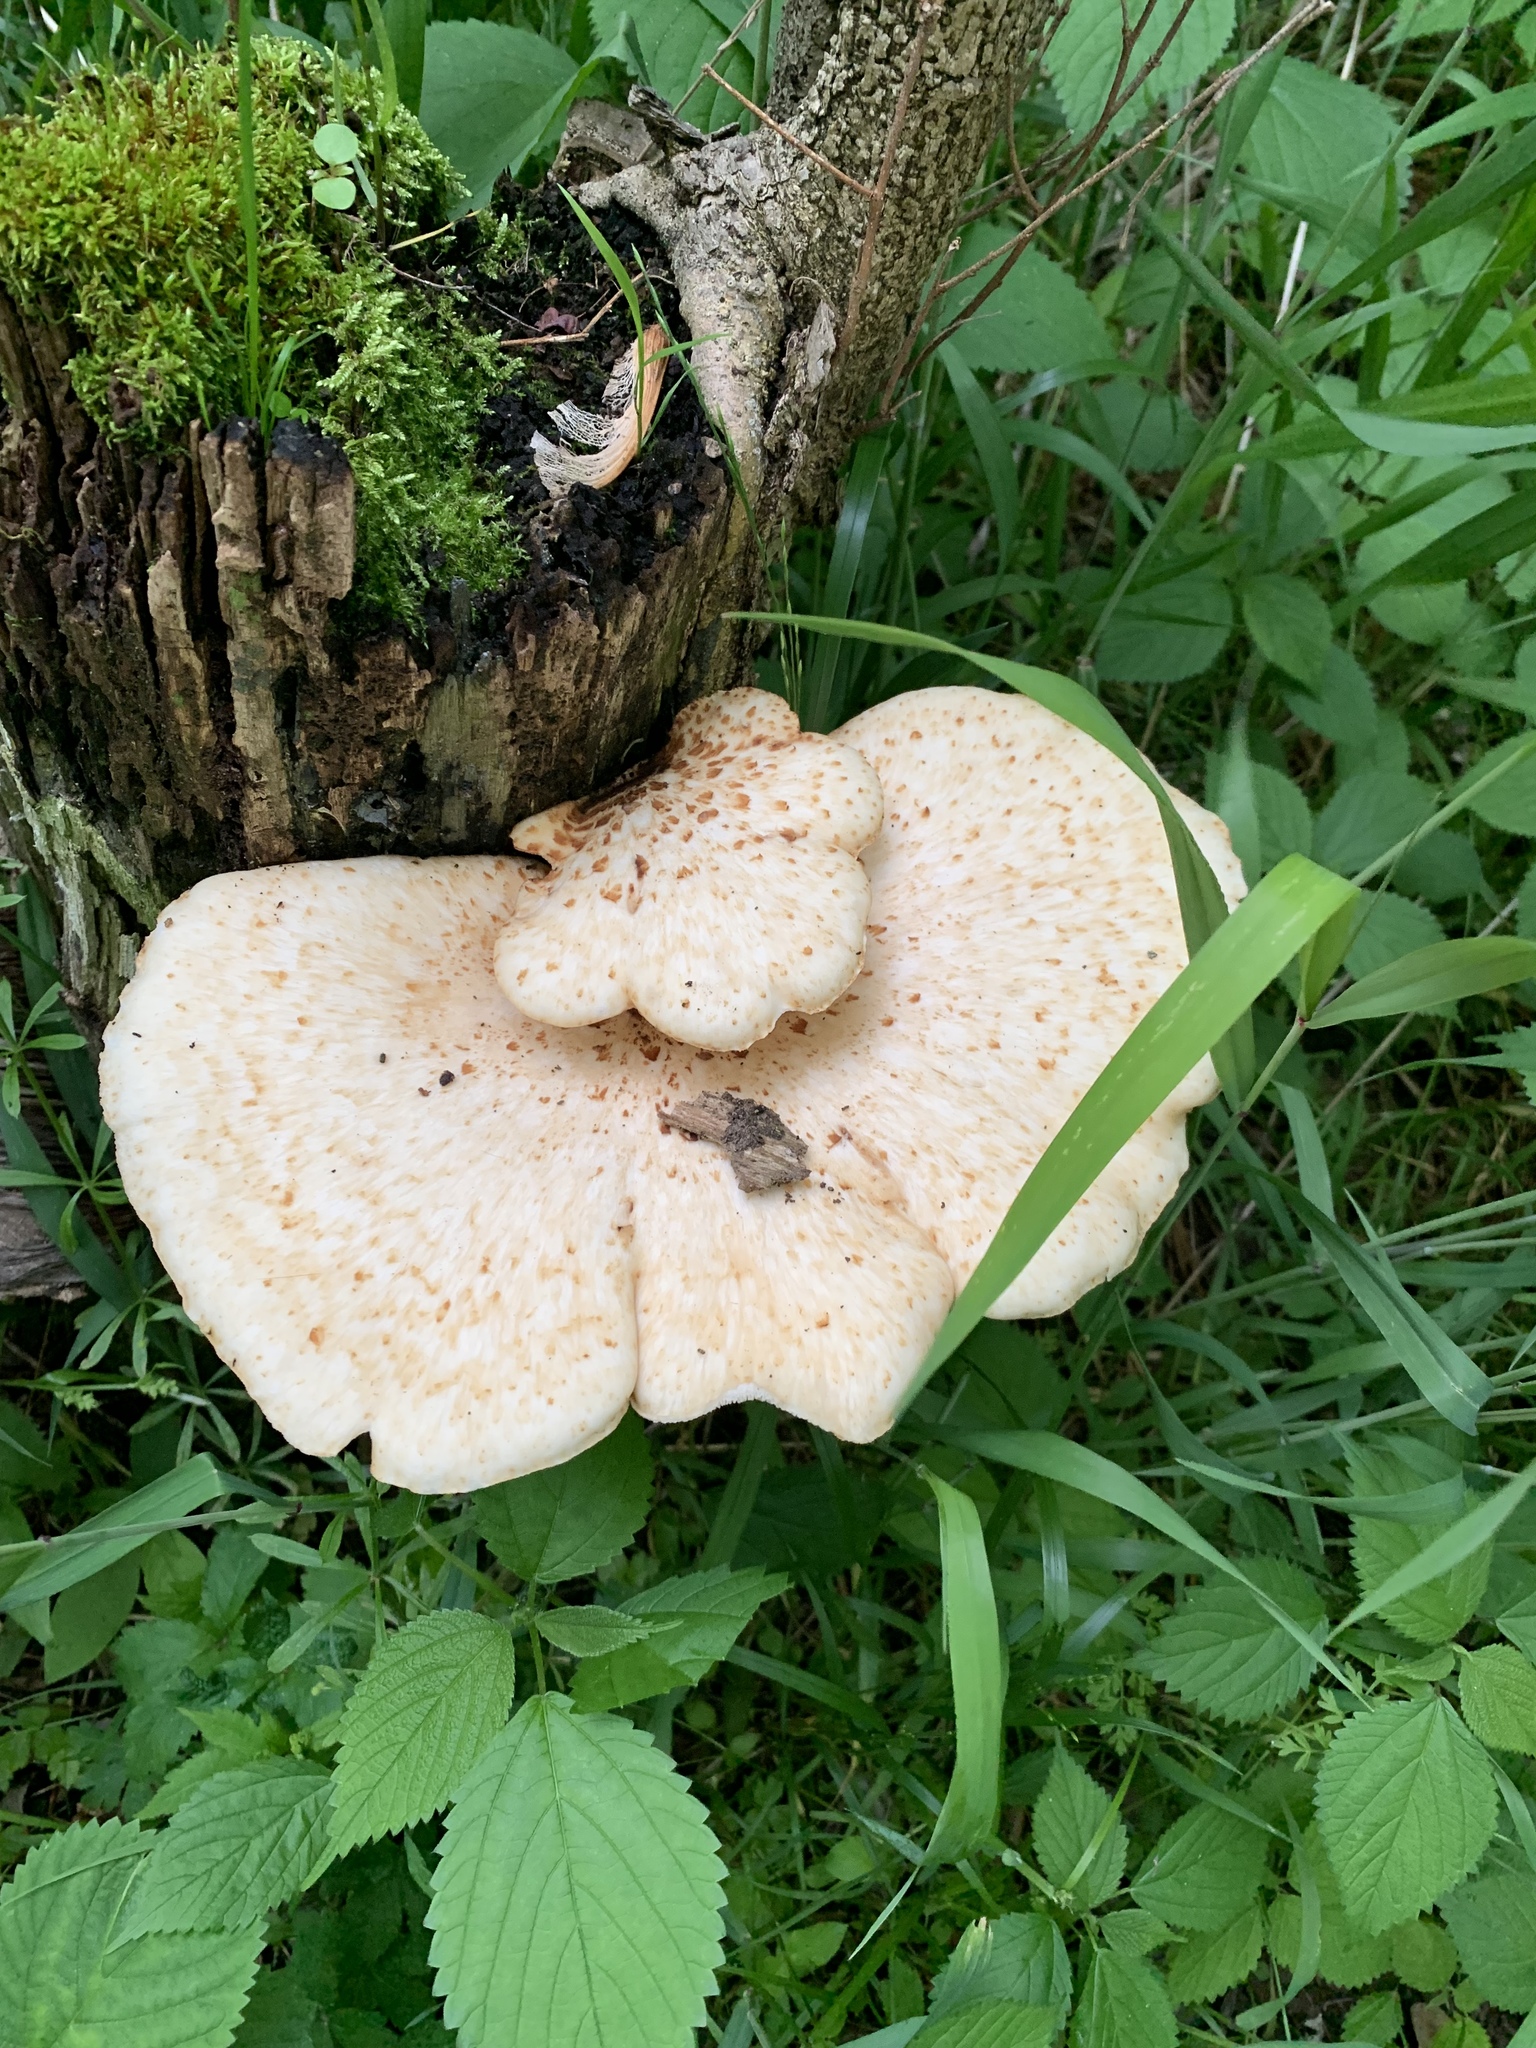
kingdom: Fungi
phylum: Basidiomycota
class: Agaricomycetes
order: Polyporales
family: Polyporaceae
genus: Cerioporus
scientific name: Cerioporus squamosus
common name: Dryad's saddle
